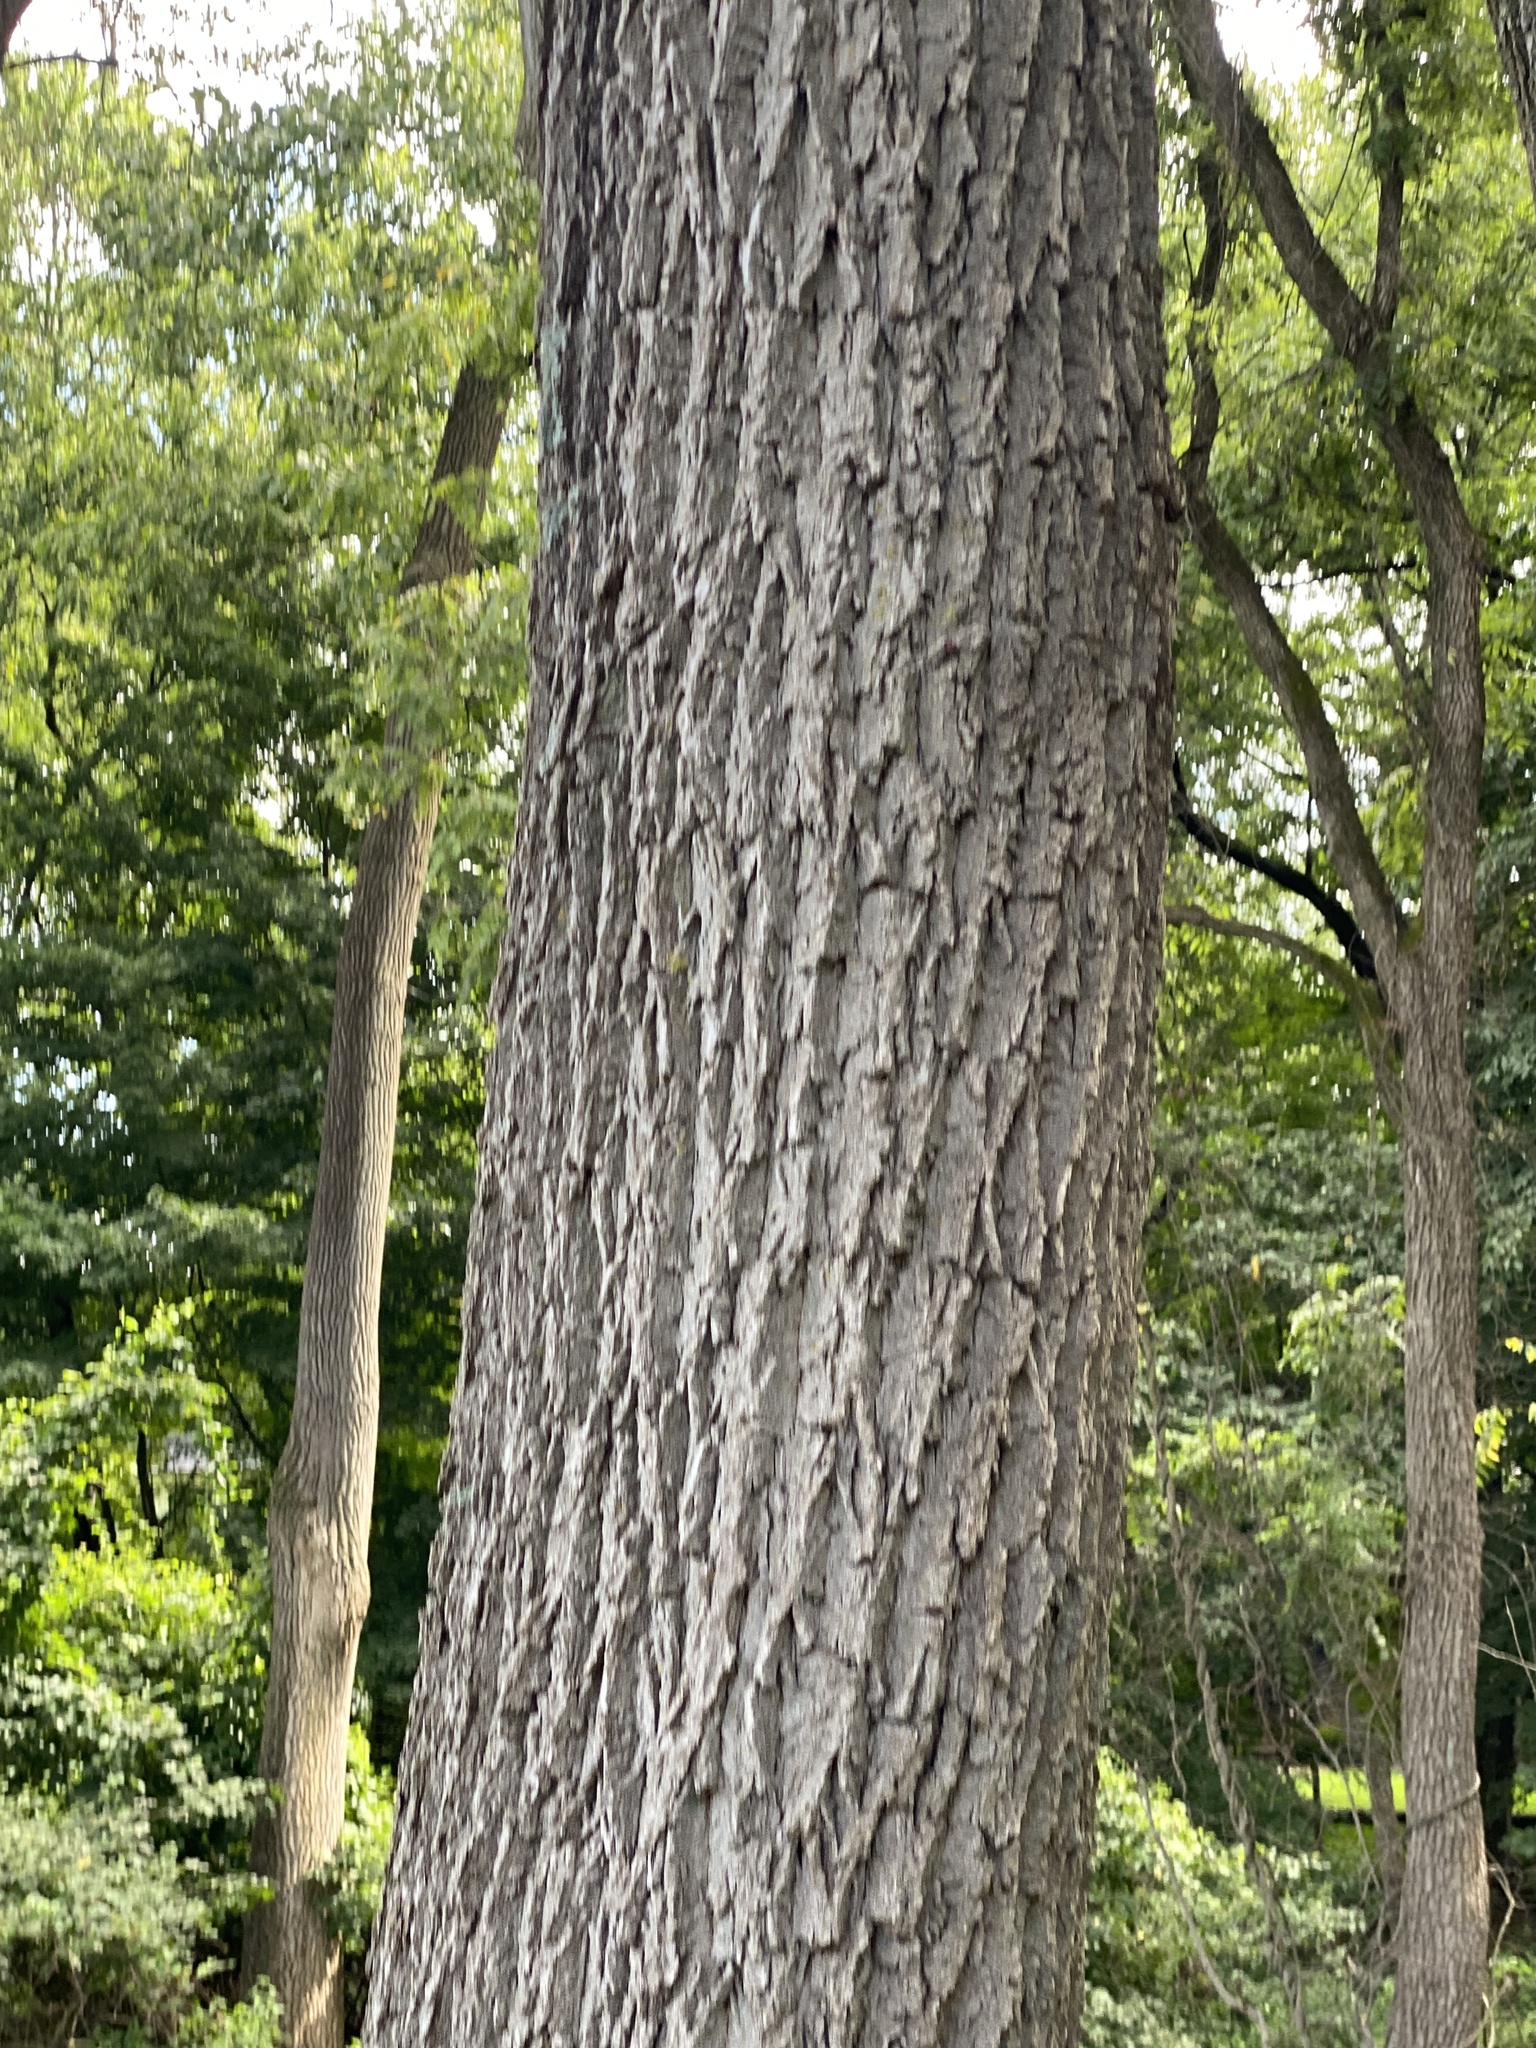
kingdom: Plantae
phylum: Tracheophyta
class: Magnoliopsida
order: Fagales
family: Juglandaceae
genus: Juglans
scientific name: Juglans nigra
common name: Black walnut
